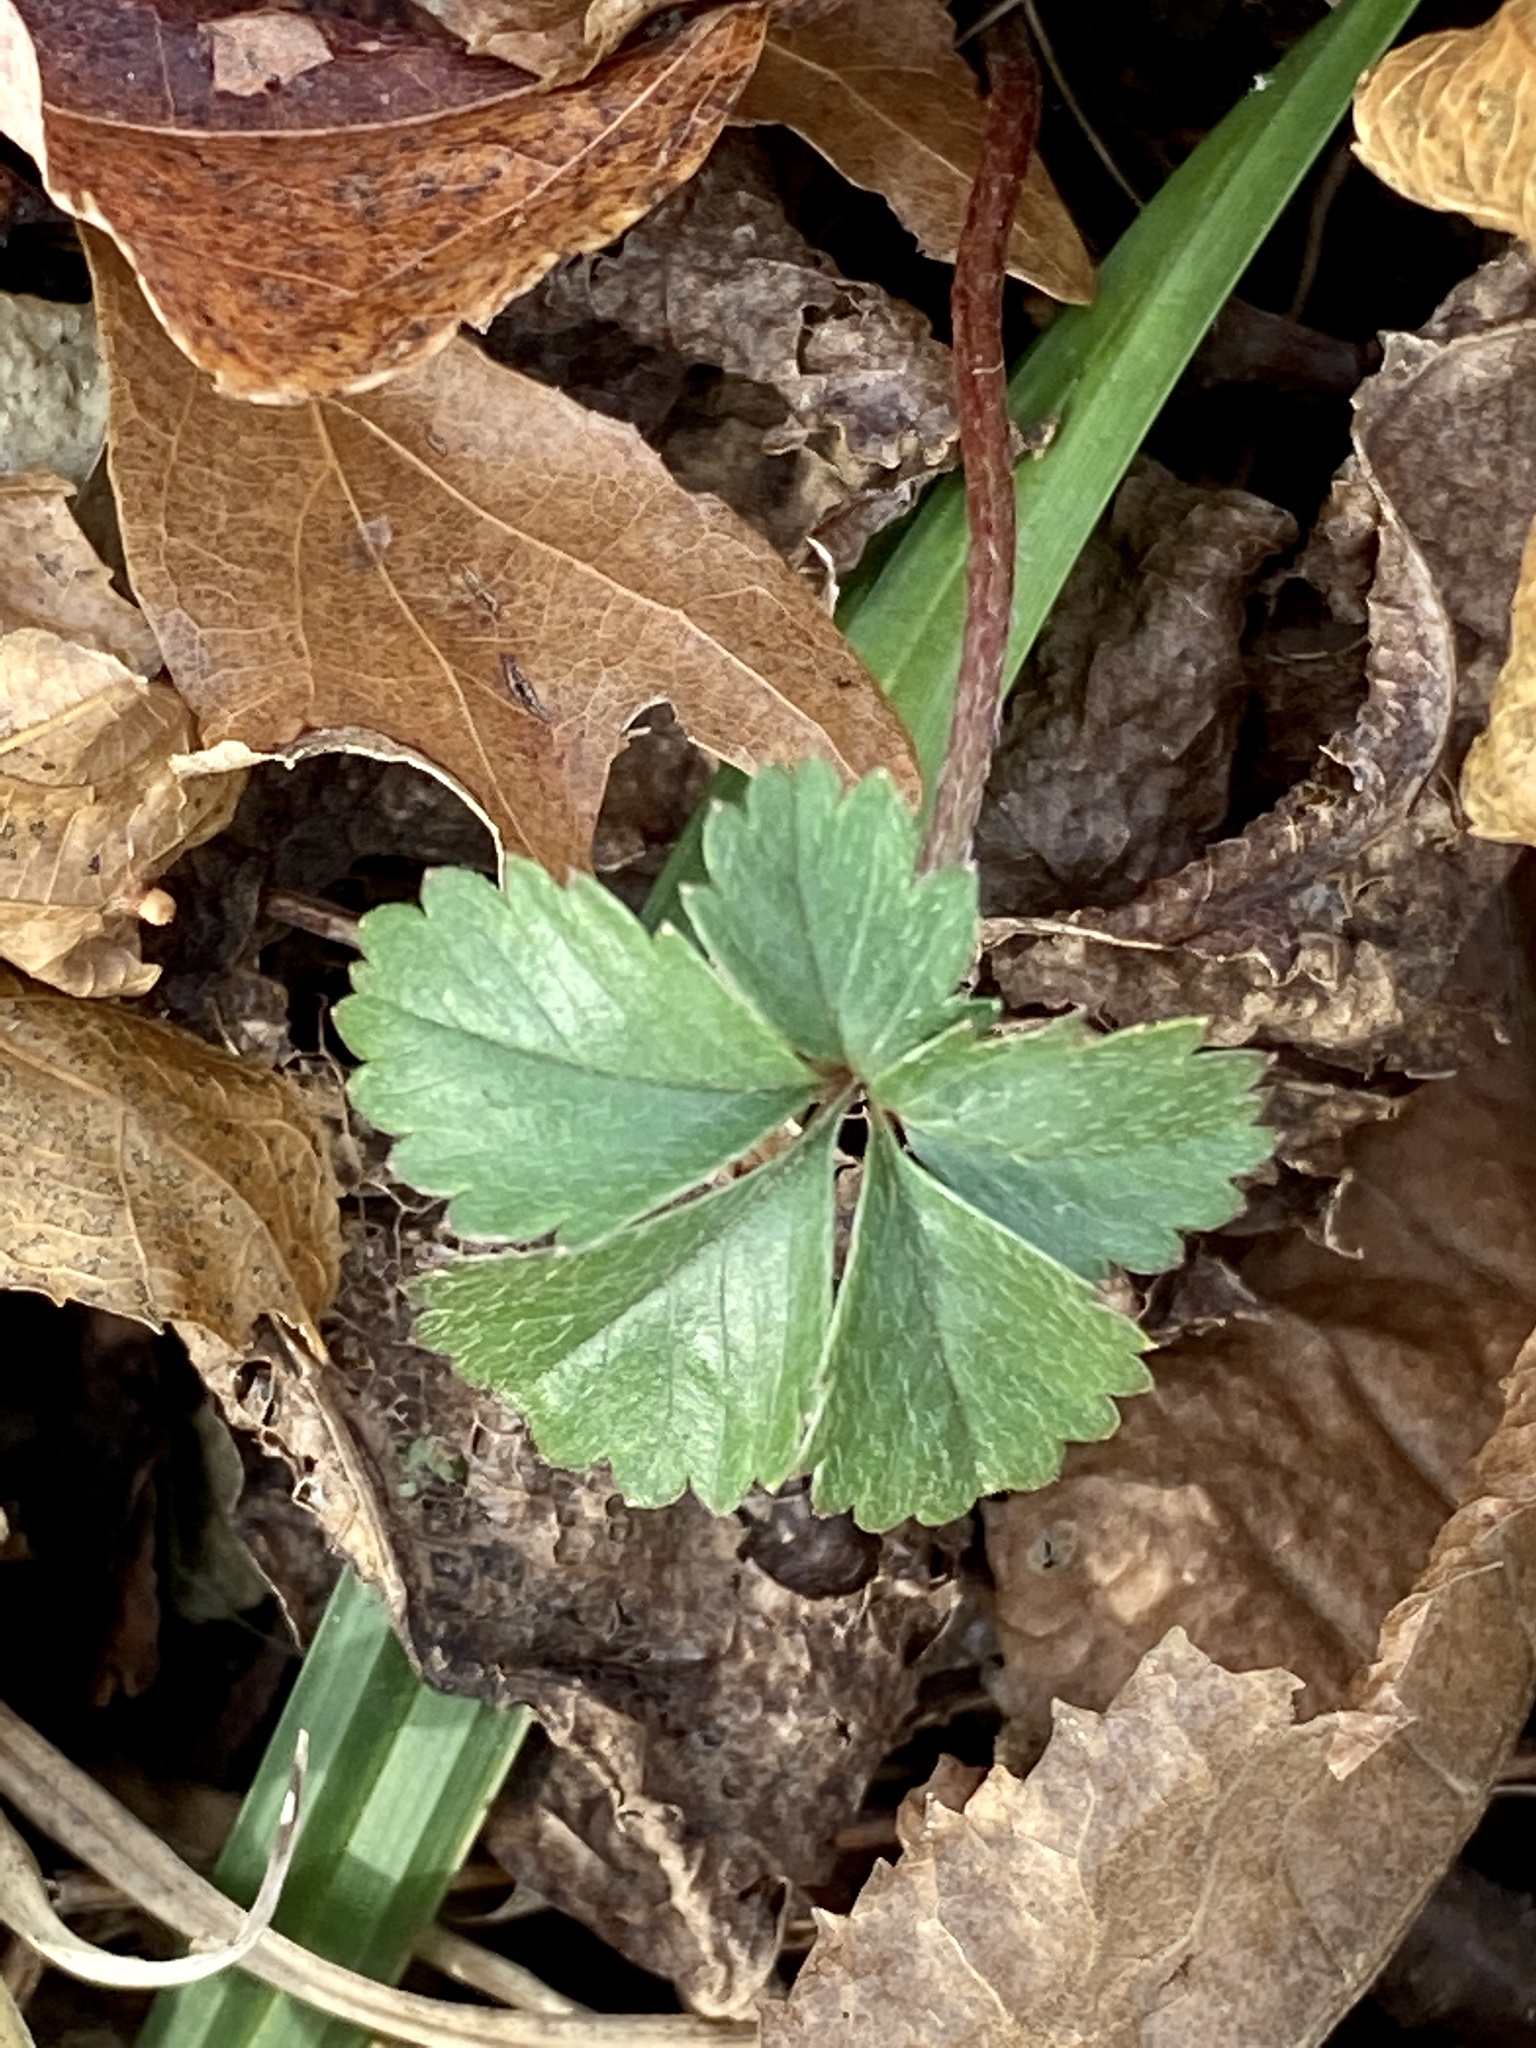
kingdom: Plantae
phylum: Tracheophyta
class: Magnoliopsida
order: Rosales
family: Rosaceae
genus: Potentilla
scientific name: Potentilla canadensis
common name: Canada cinquefoil
